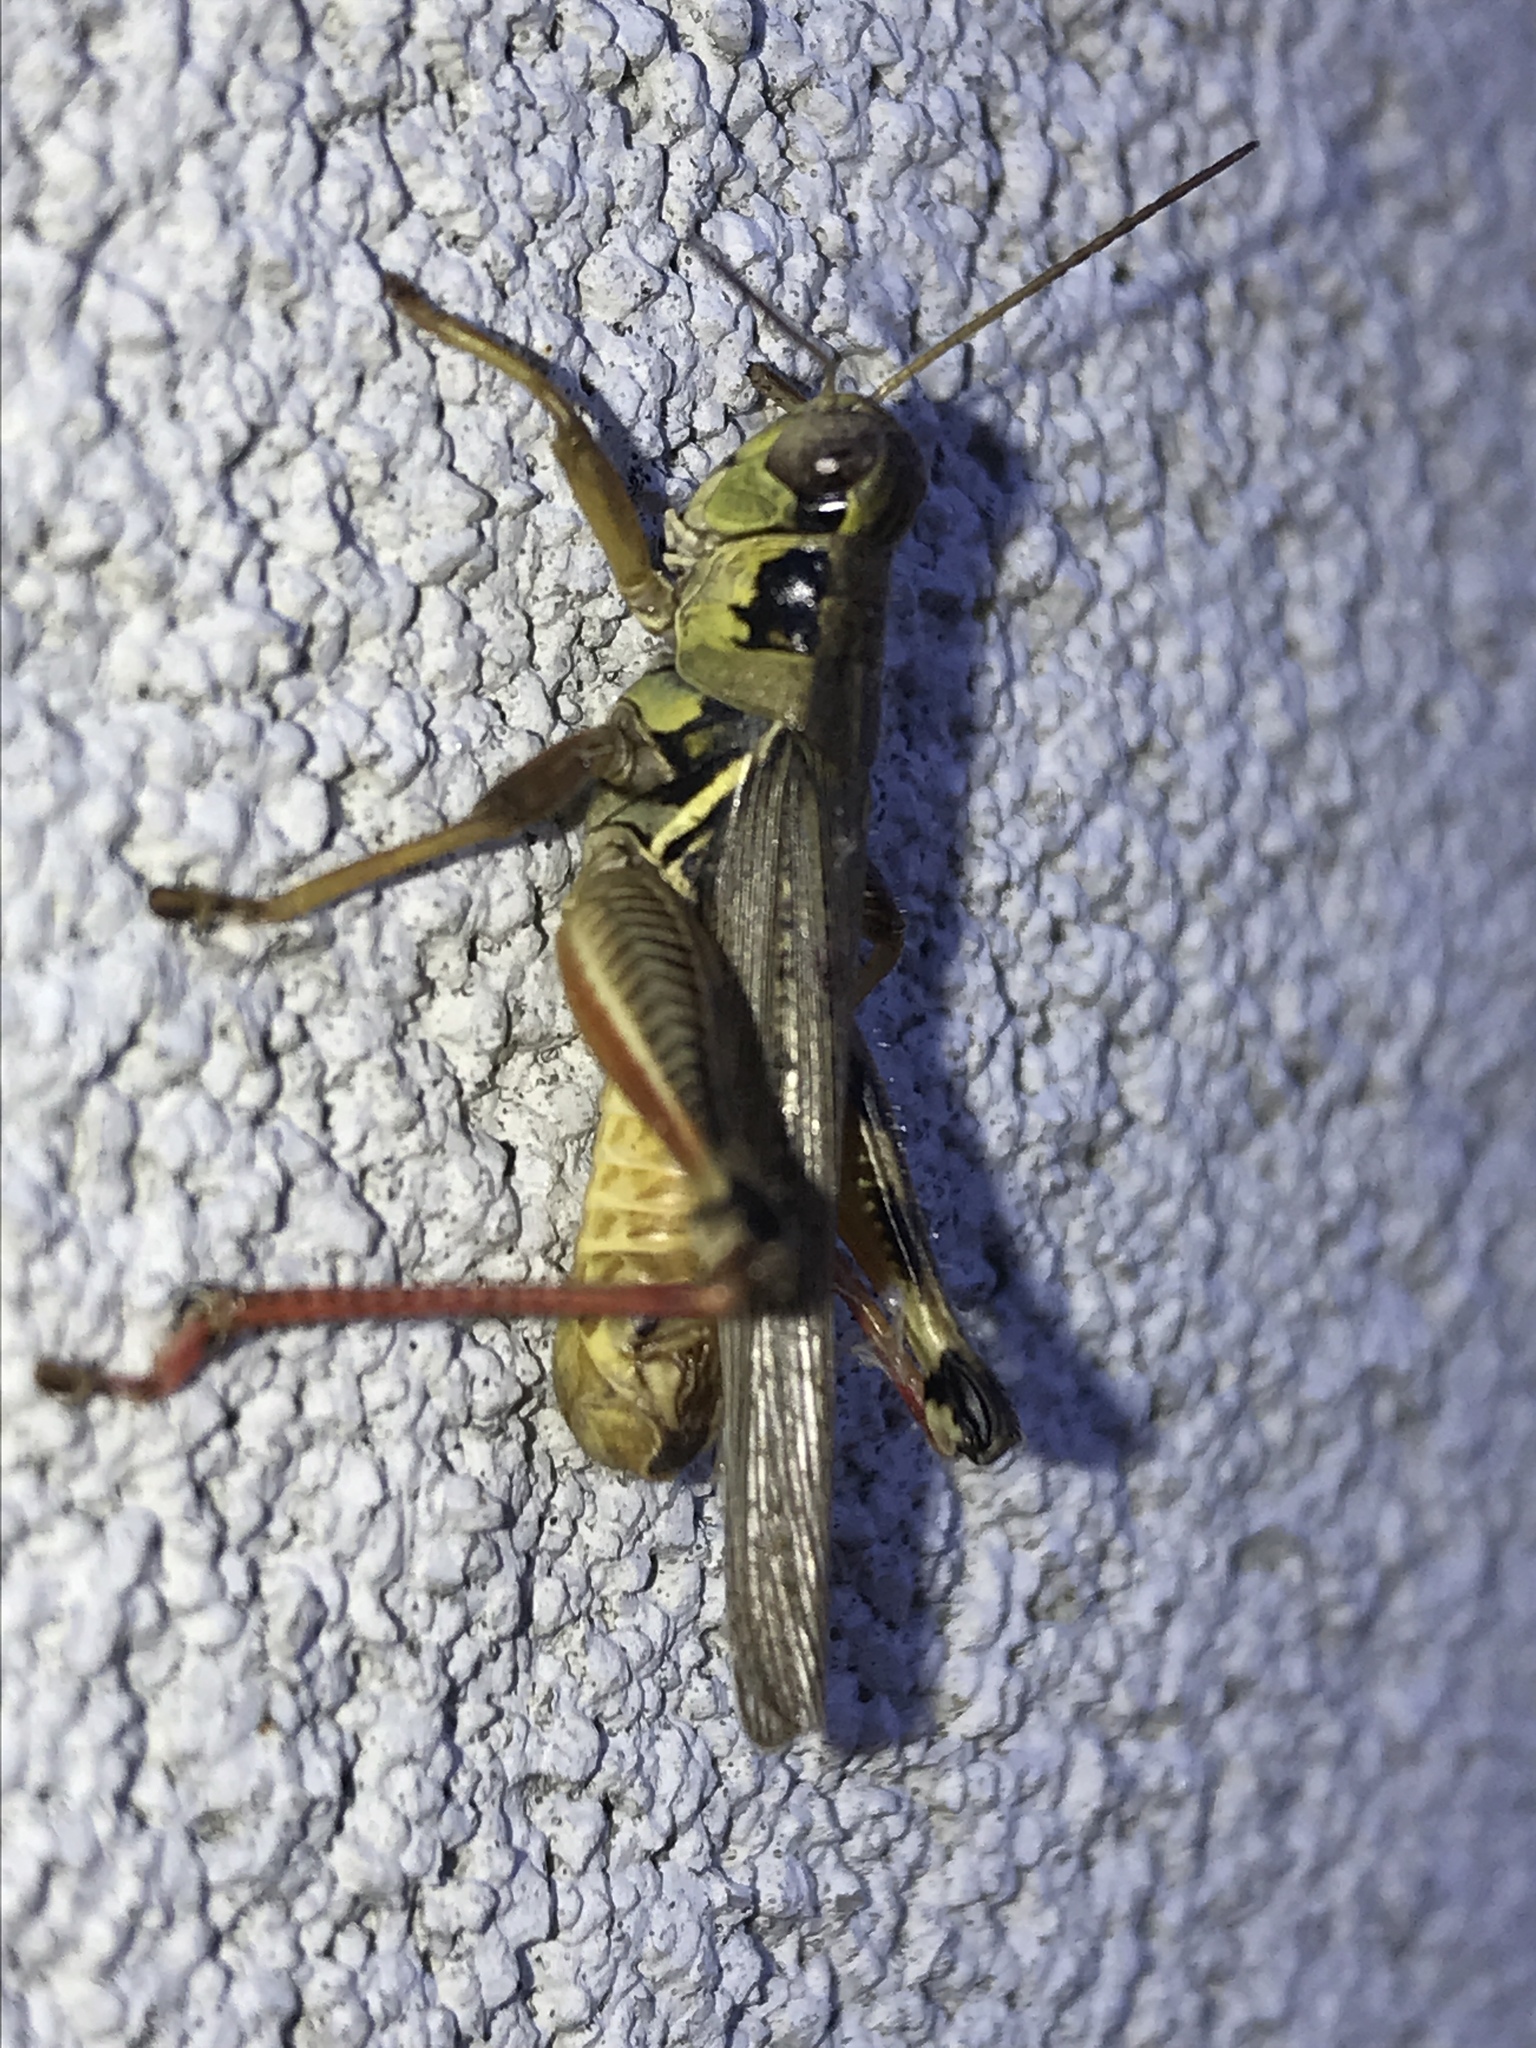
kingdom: Animalia
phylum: Arthropoda
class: Insecta
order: Orthoptera
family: Acrididae
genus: Melanoplus
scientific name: Melanoplus femurrubrum
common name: Red-legged grasshopper
